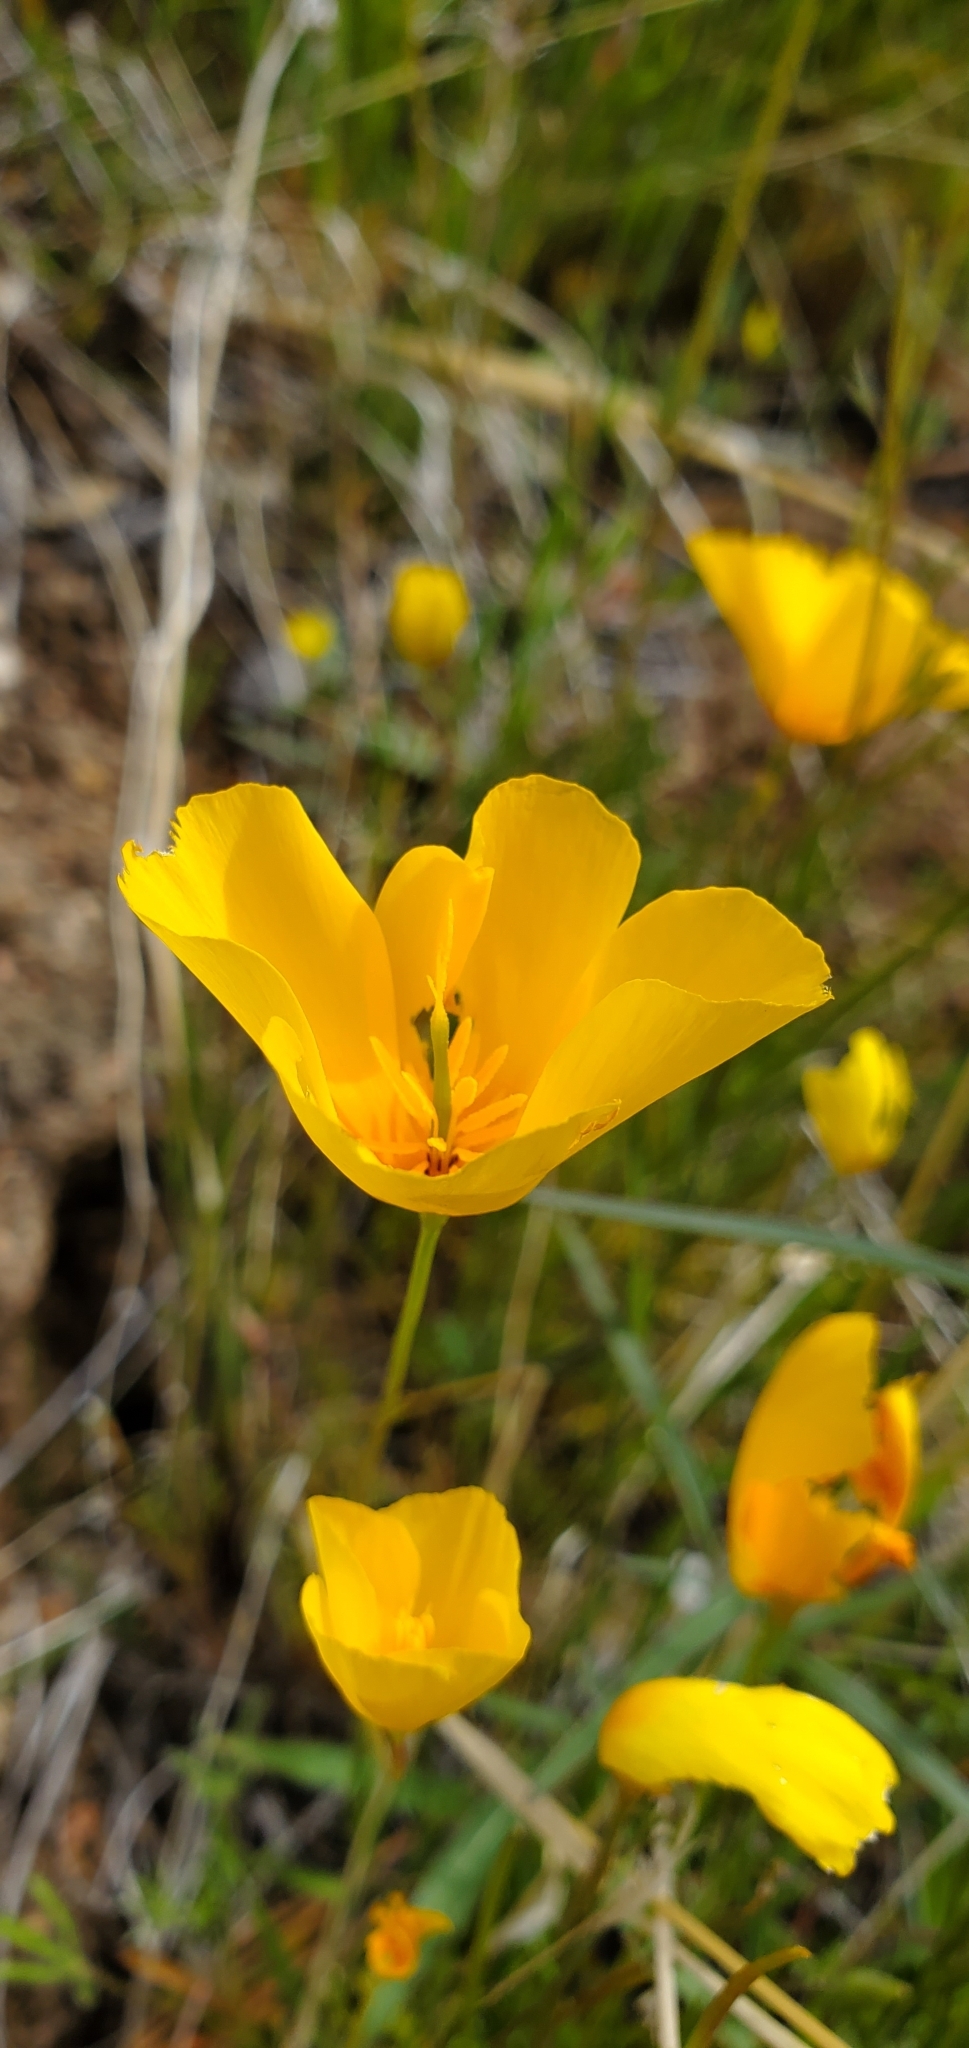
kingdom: Plantae
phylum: Tracheophyta
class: Magnoliopsida
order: Ranunculales
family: Papaveraceae
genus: Eschscholzia
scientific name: Eschscholzia caespitosa
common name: Tufted california-poppy
